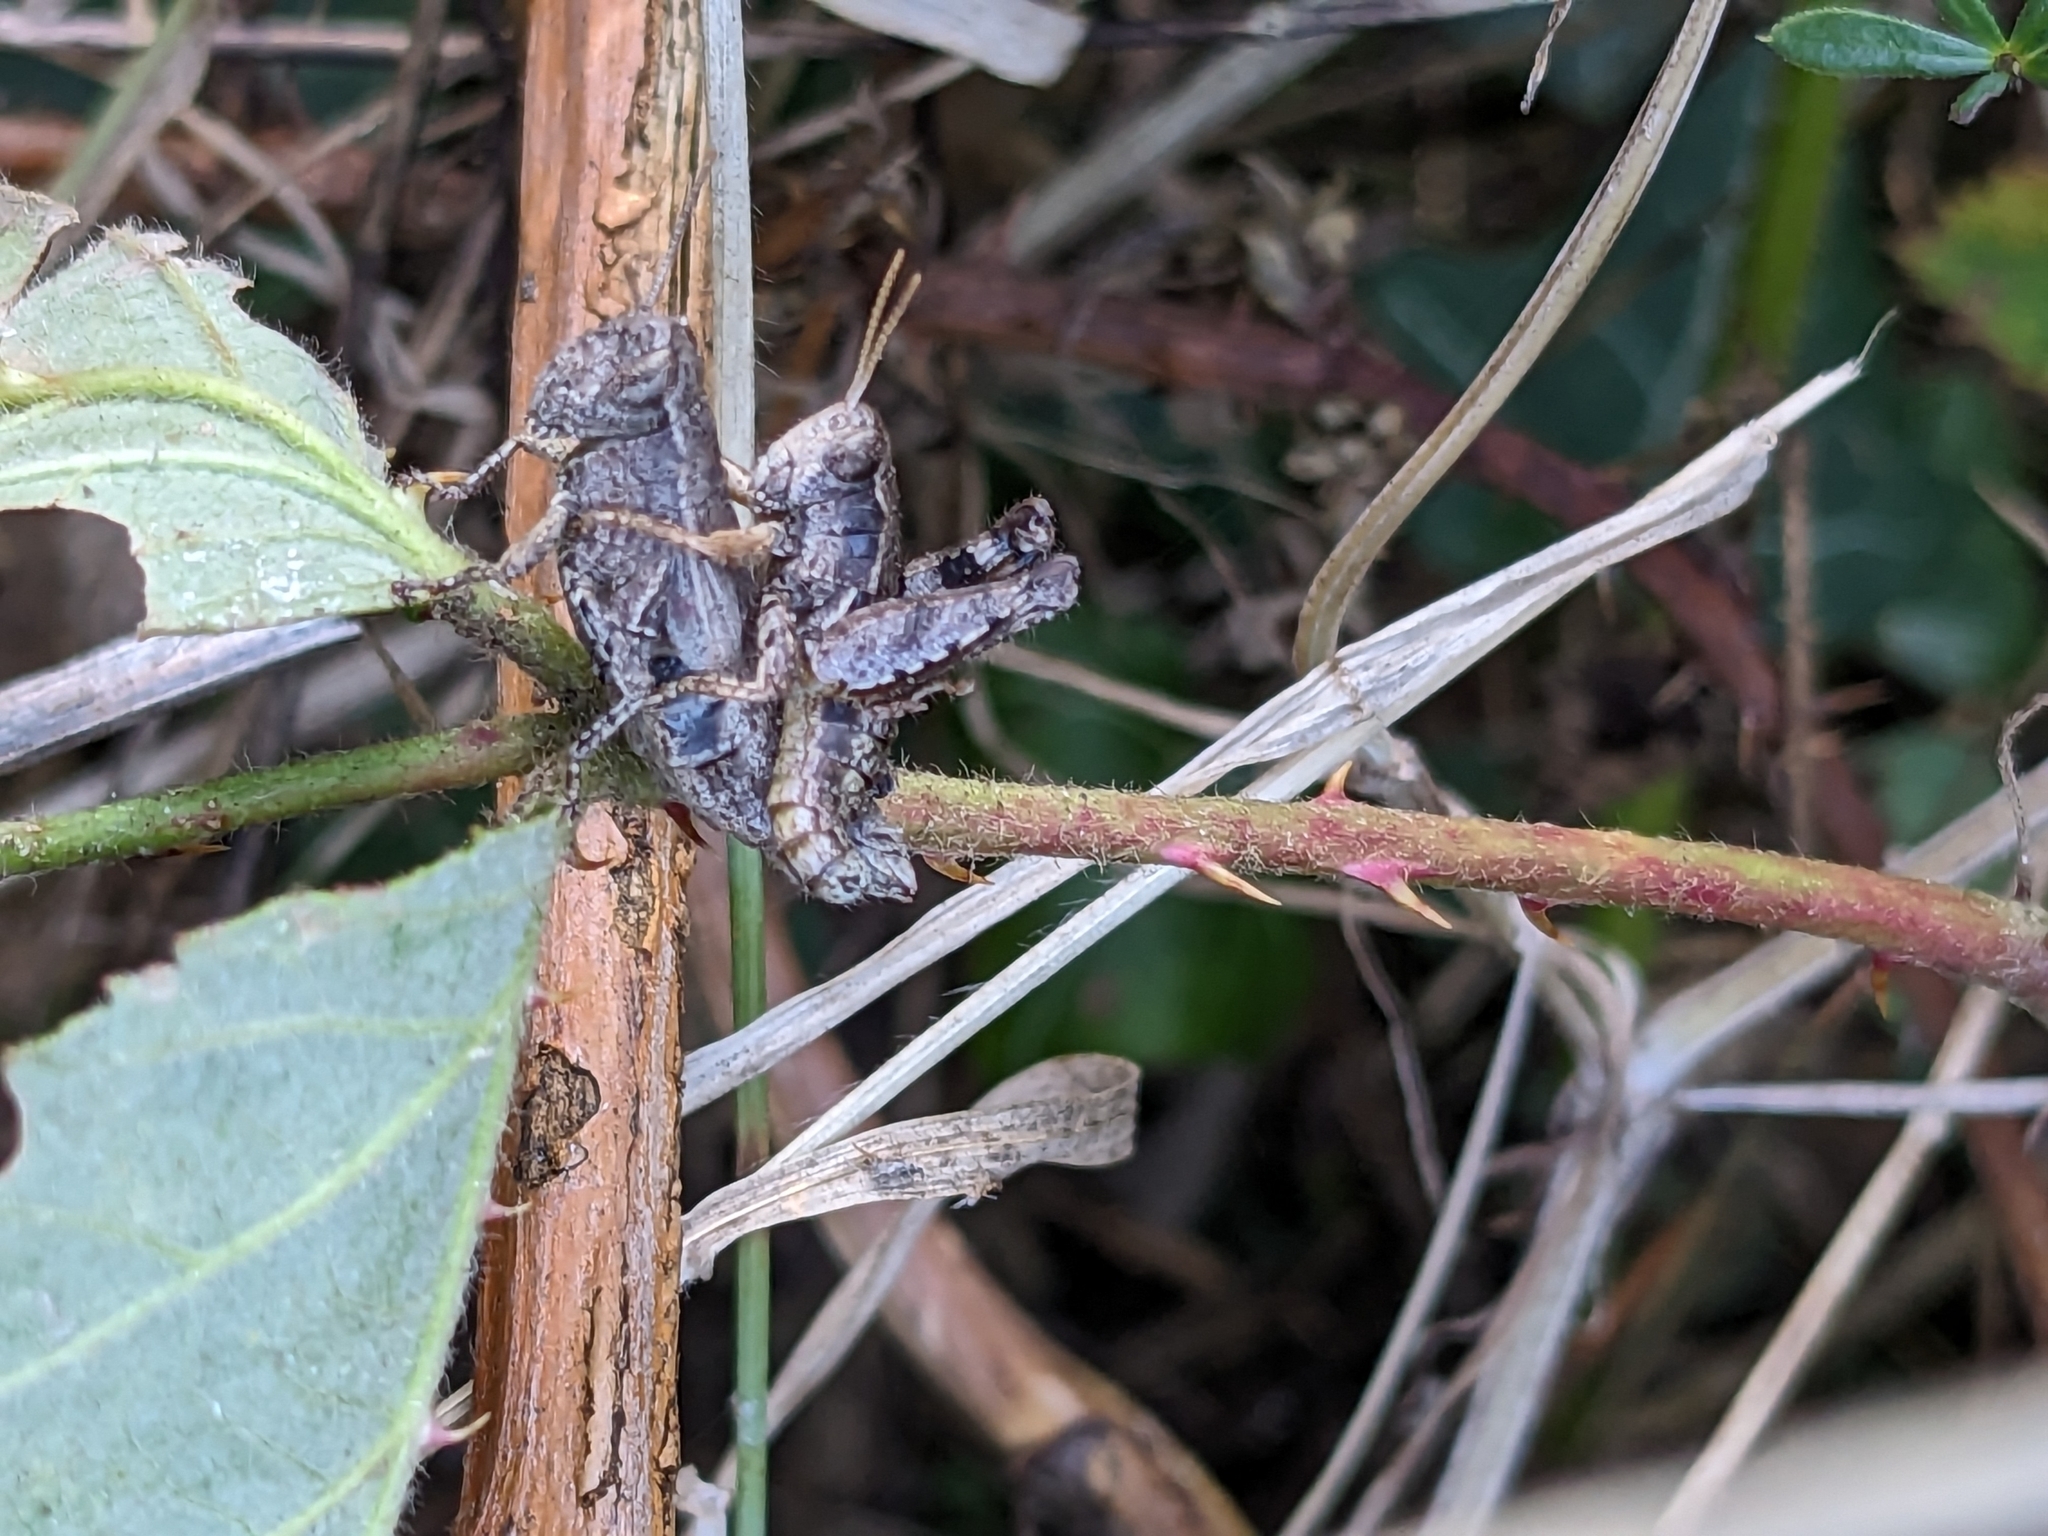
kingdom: Animalia
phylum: Arthropoda
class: Insecta
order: Orthoptera
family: Acrididae
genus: Pezotettix
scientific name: Pezotettix giornae
